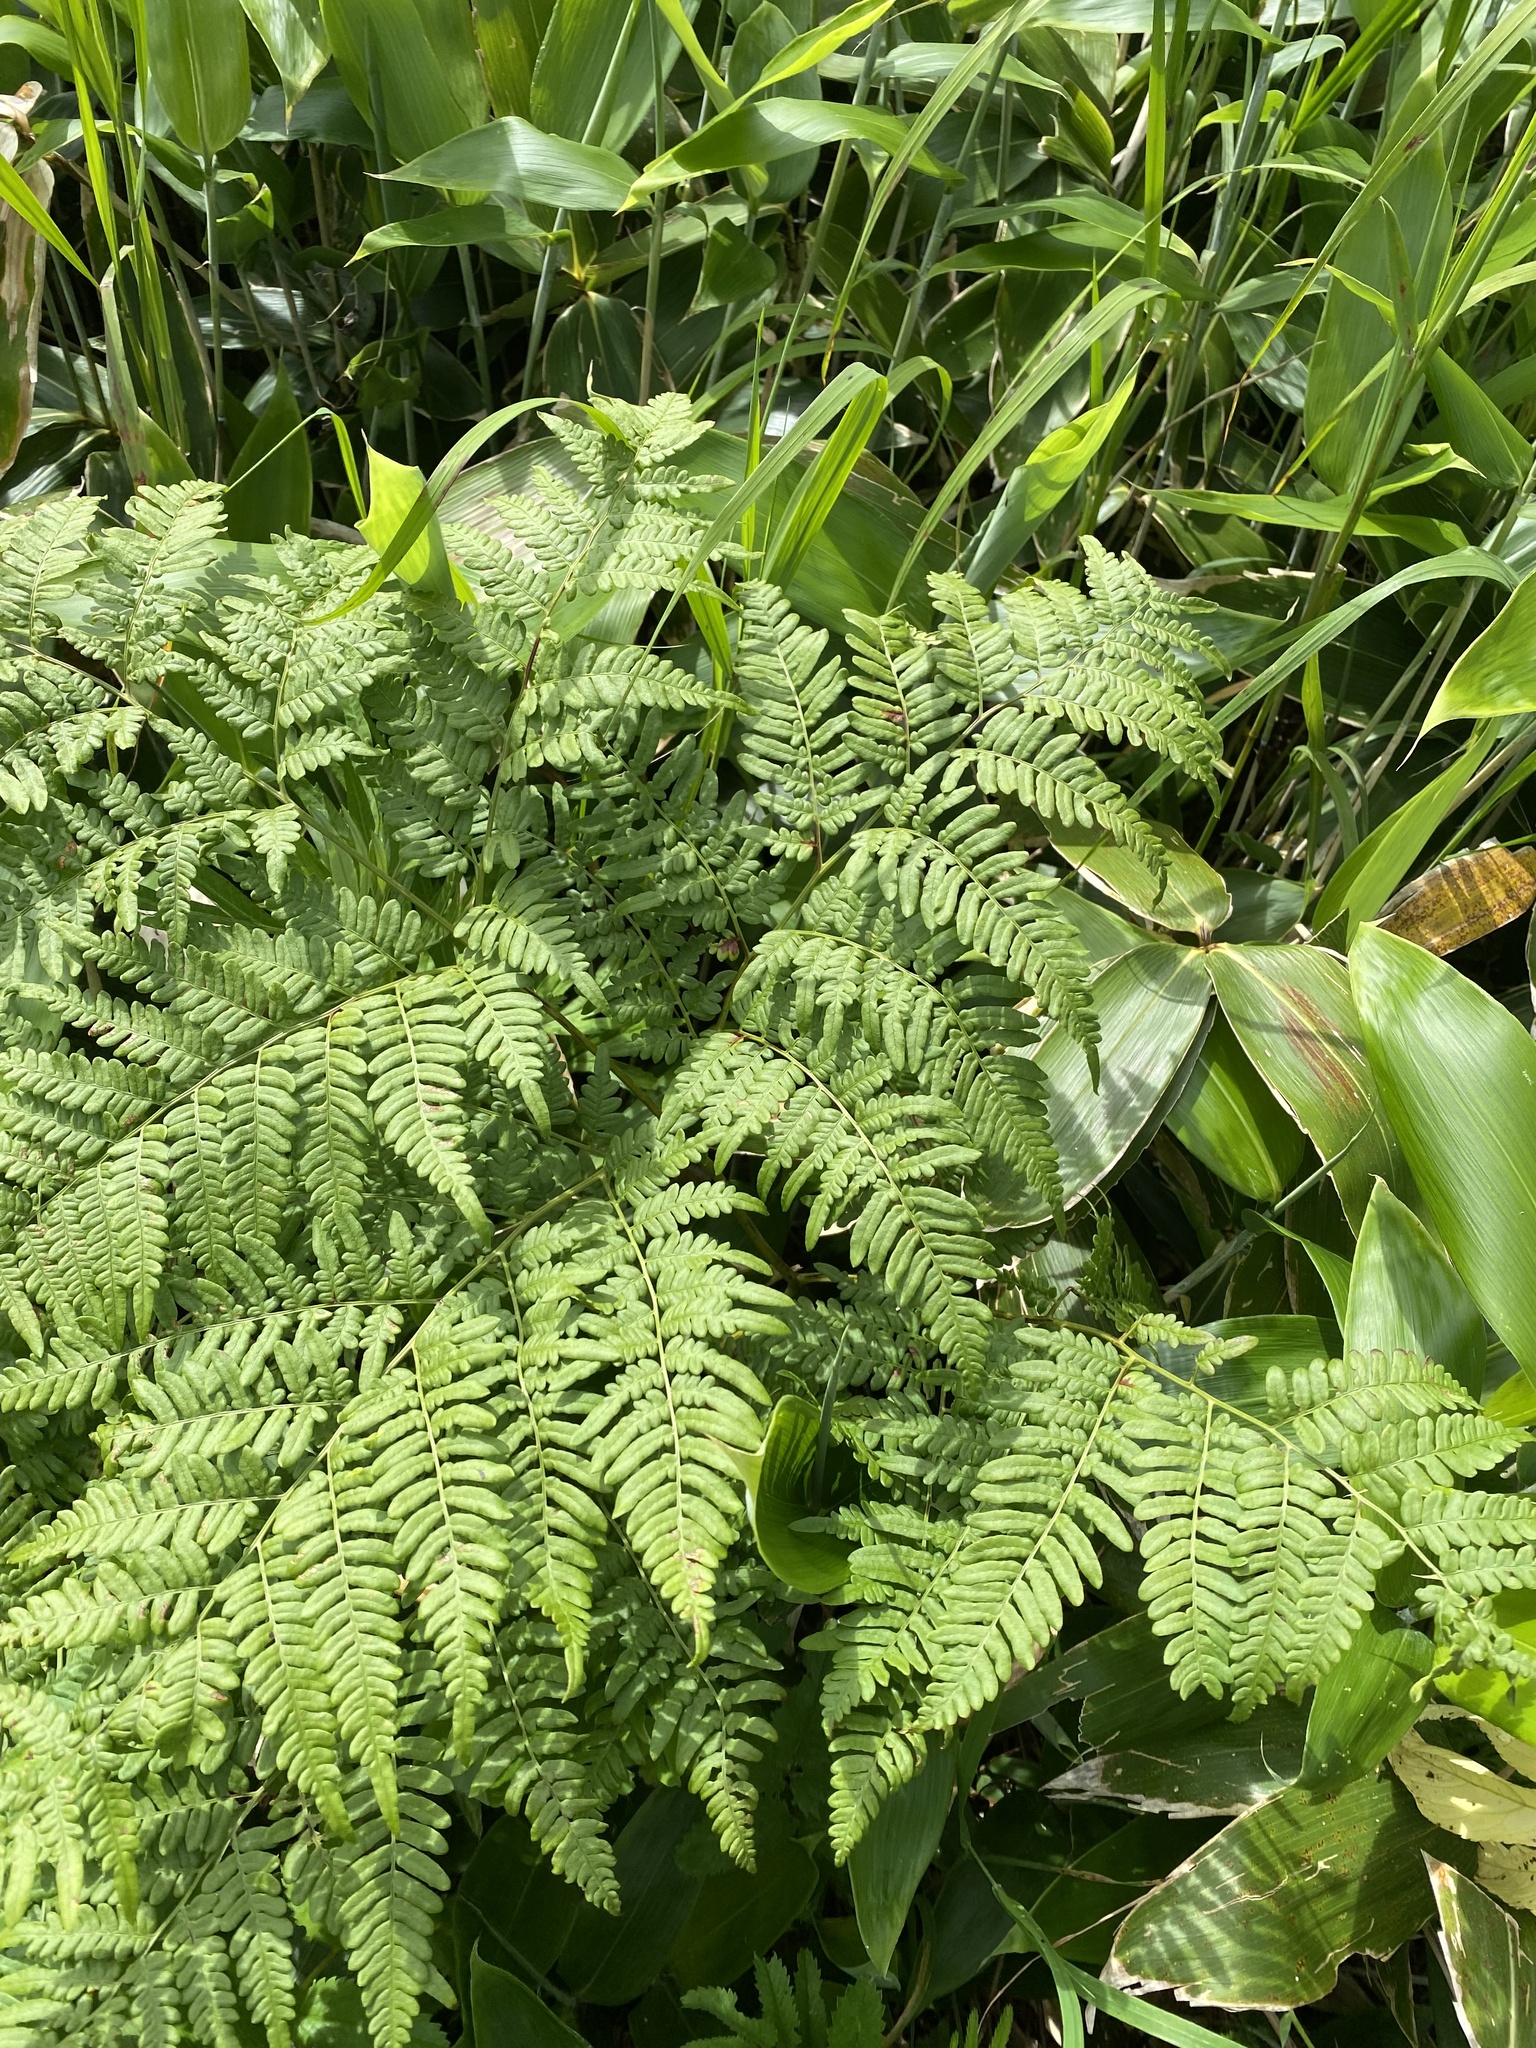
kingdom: Plantae
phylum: Tracheophyta
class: Polypodiopsida
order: Polypodiales
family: Dennstaedtiaceae
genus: Pteridium
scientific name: Pteridium aquilinum
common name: Bracken
